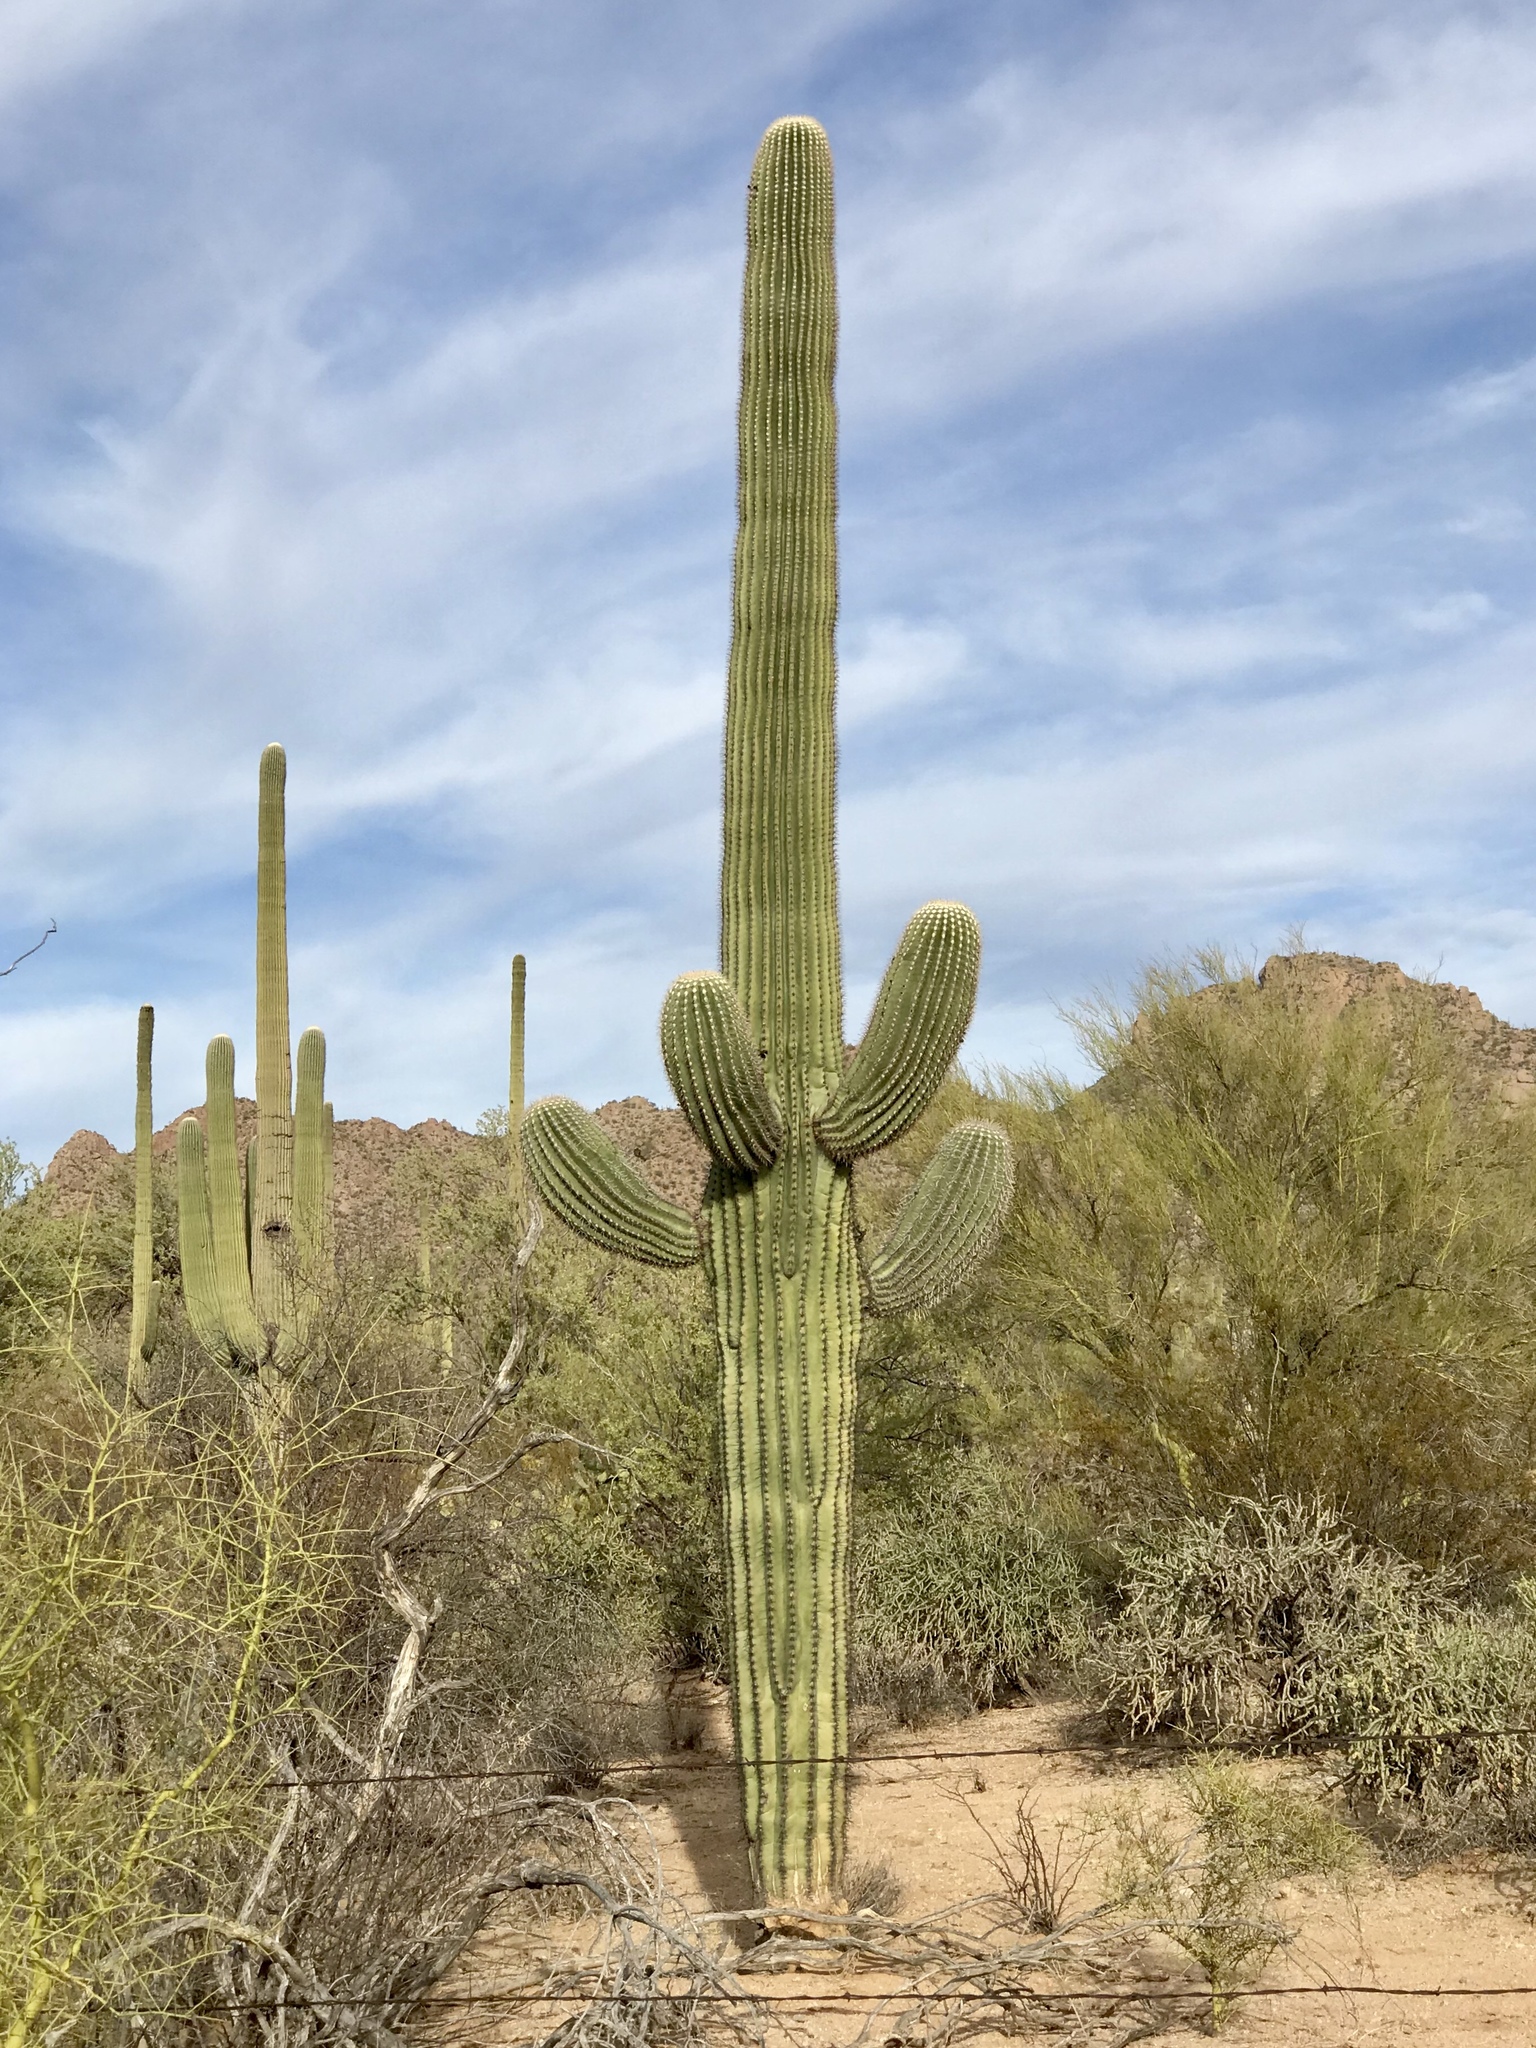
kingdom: Plantae
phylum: Tracheophyta
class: Magnoliopsida
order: Caryophyllales
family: Cactaceae
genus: Carnegiea
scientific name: Carnegiea gigantea
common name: Saguaro
